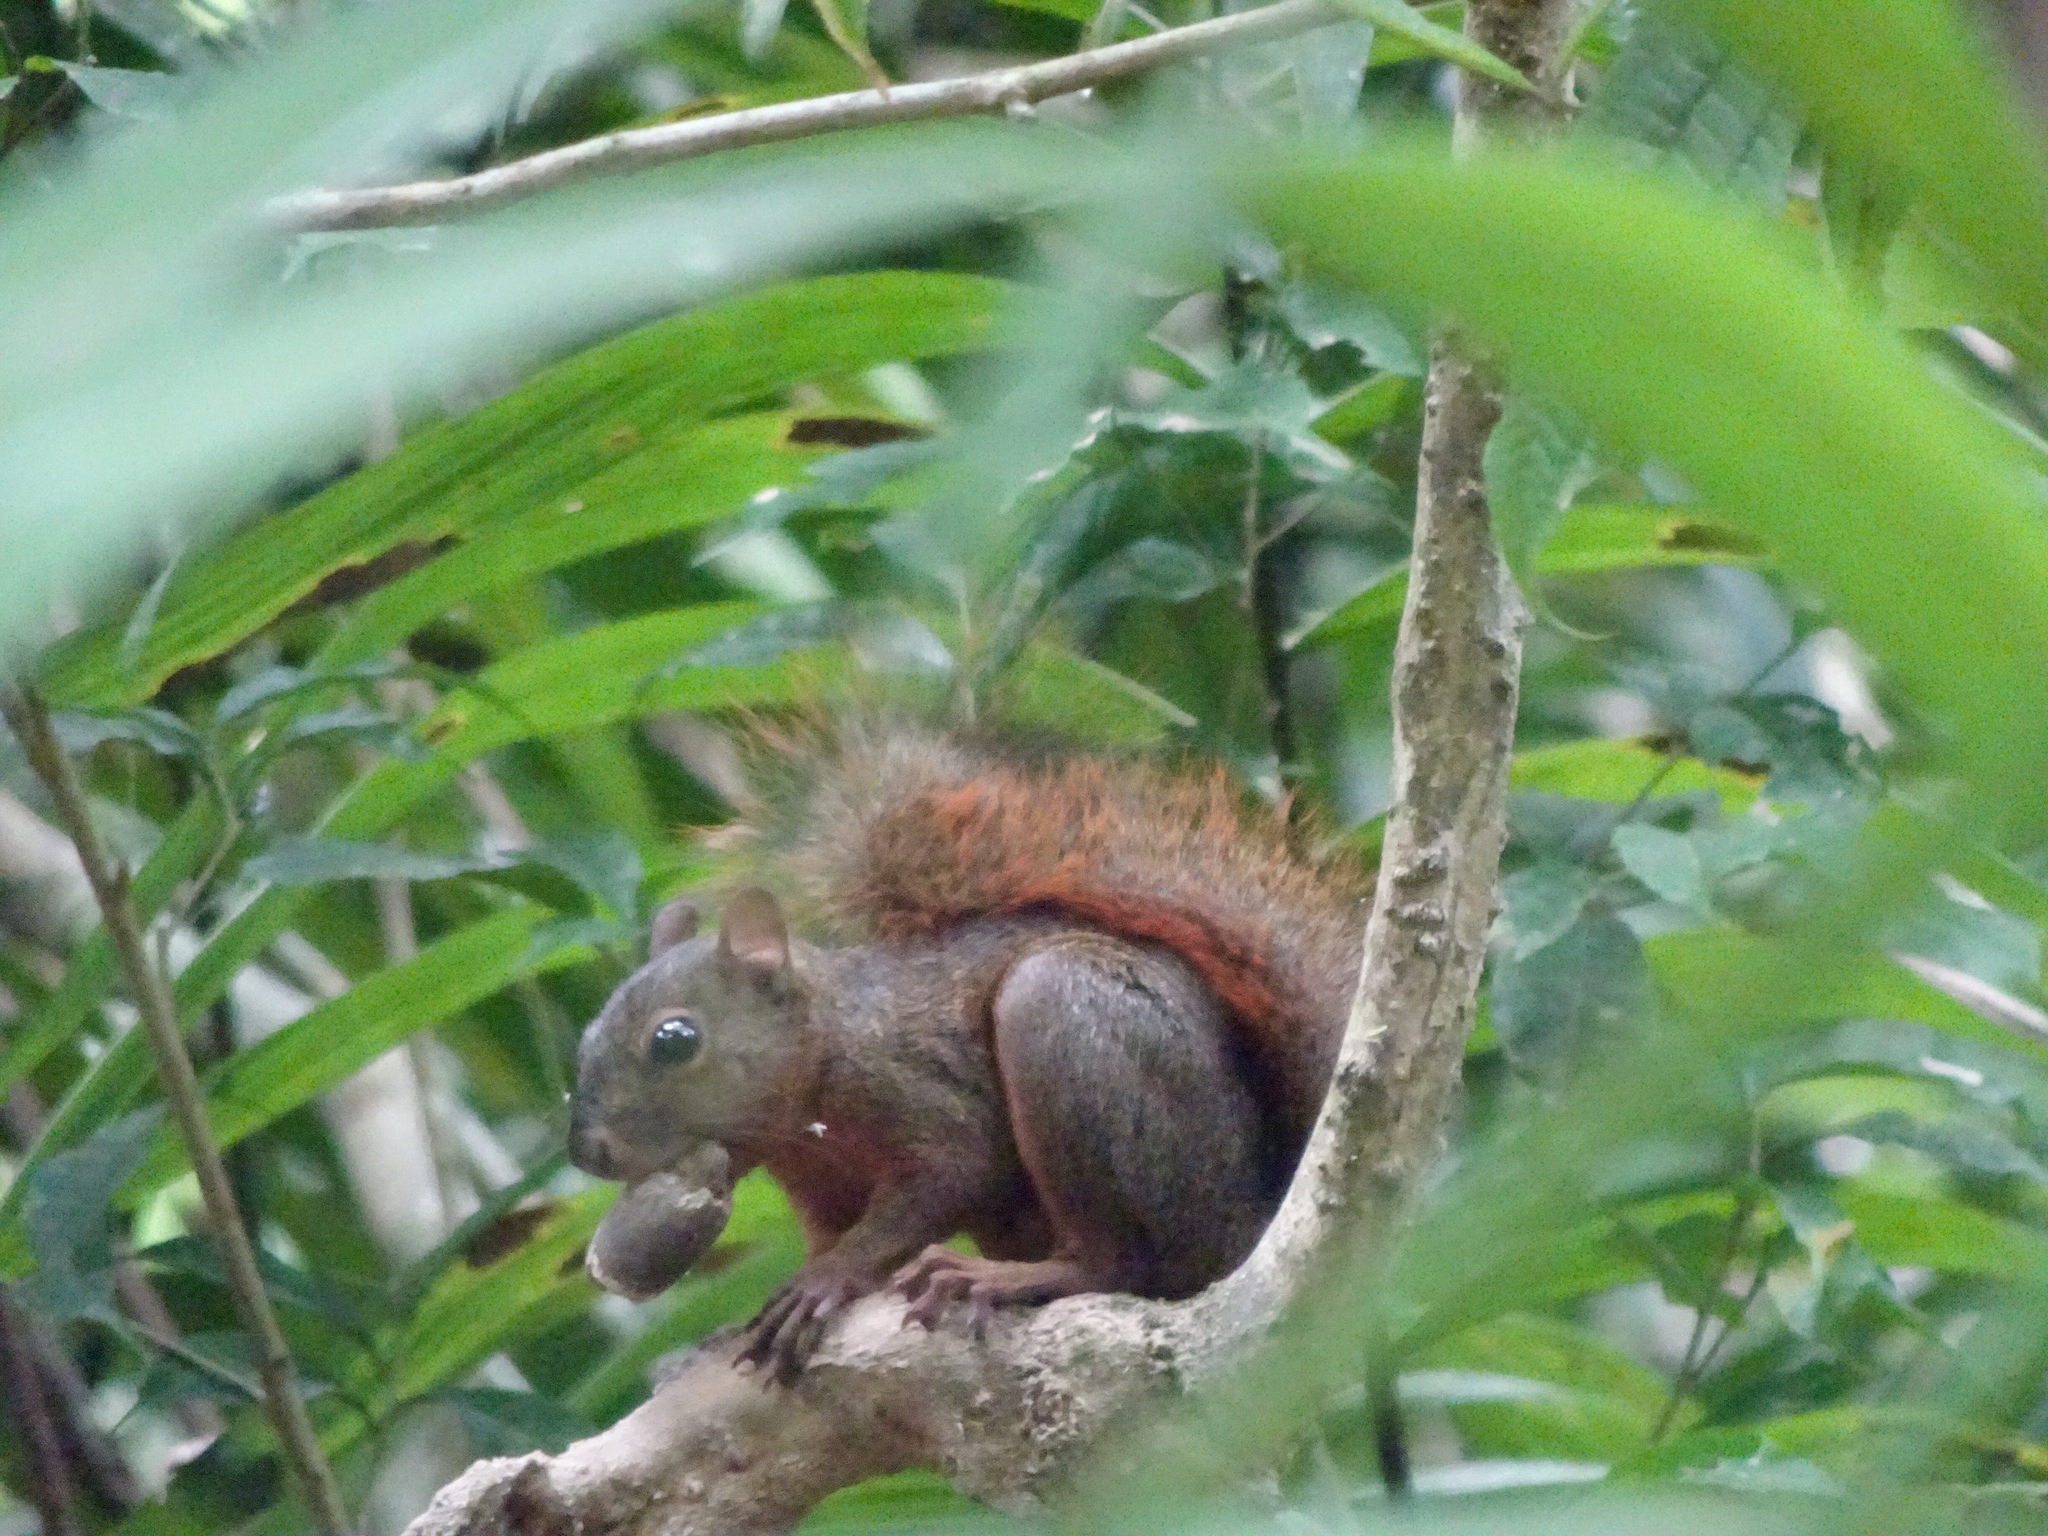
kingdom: Animalia
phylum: Chordata
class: Mammalia
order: Rodentia
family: Sciuridae
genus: Sciurus
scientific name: Sciurus granatensis
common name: Red-tailed squirrel
